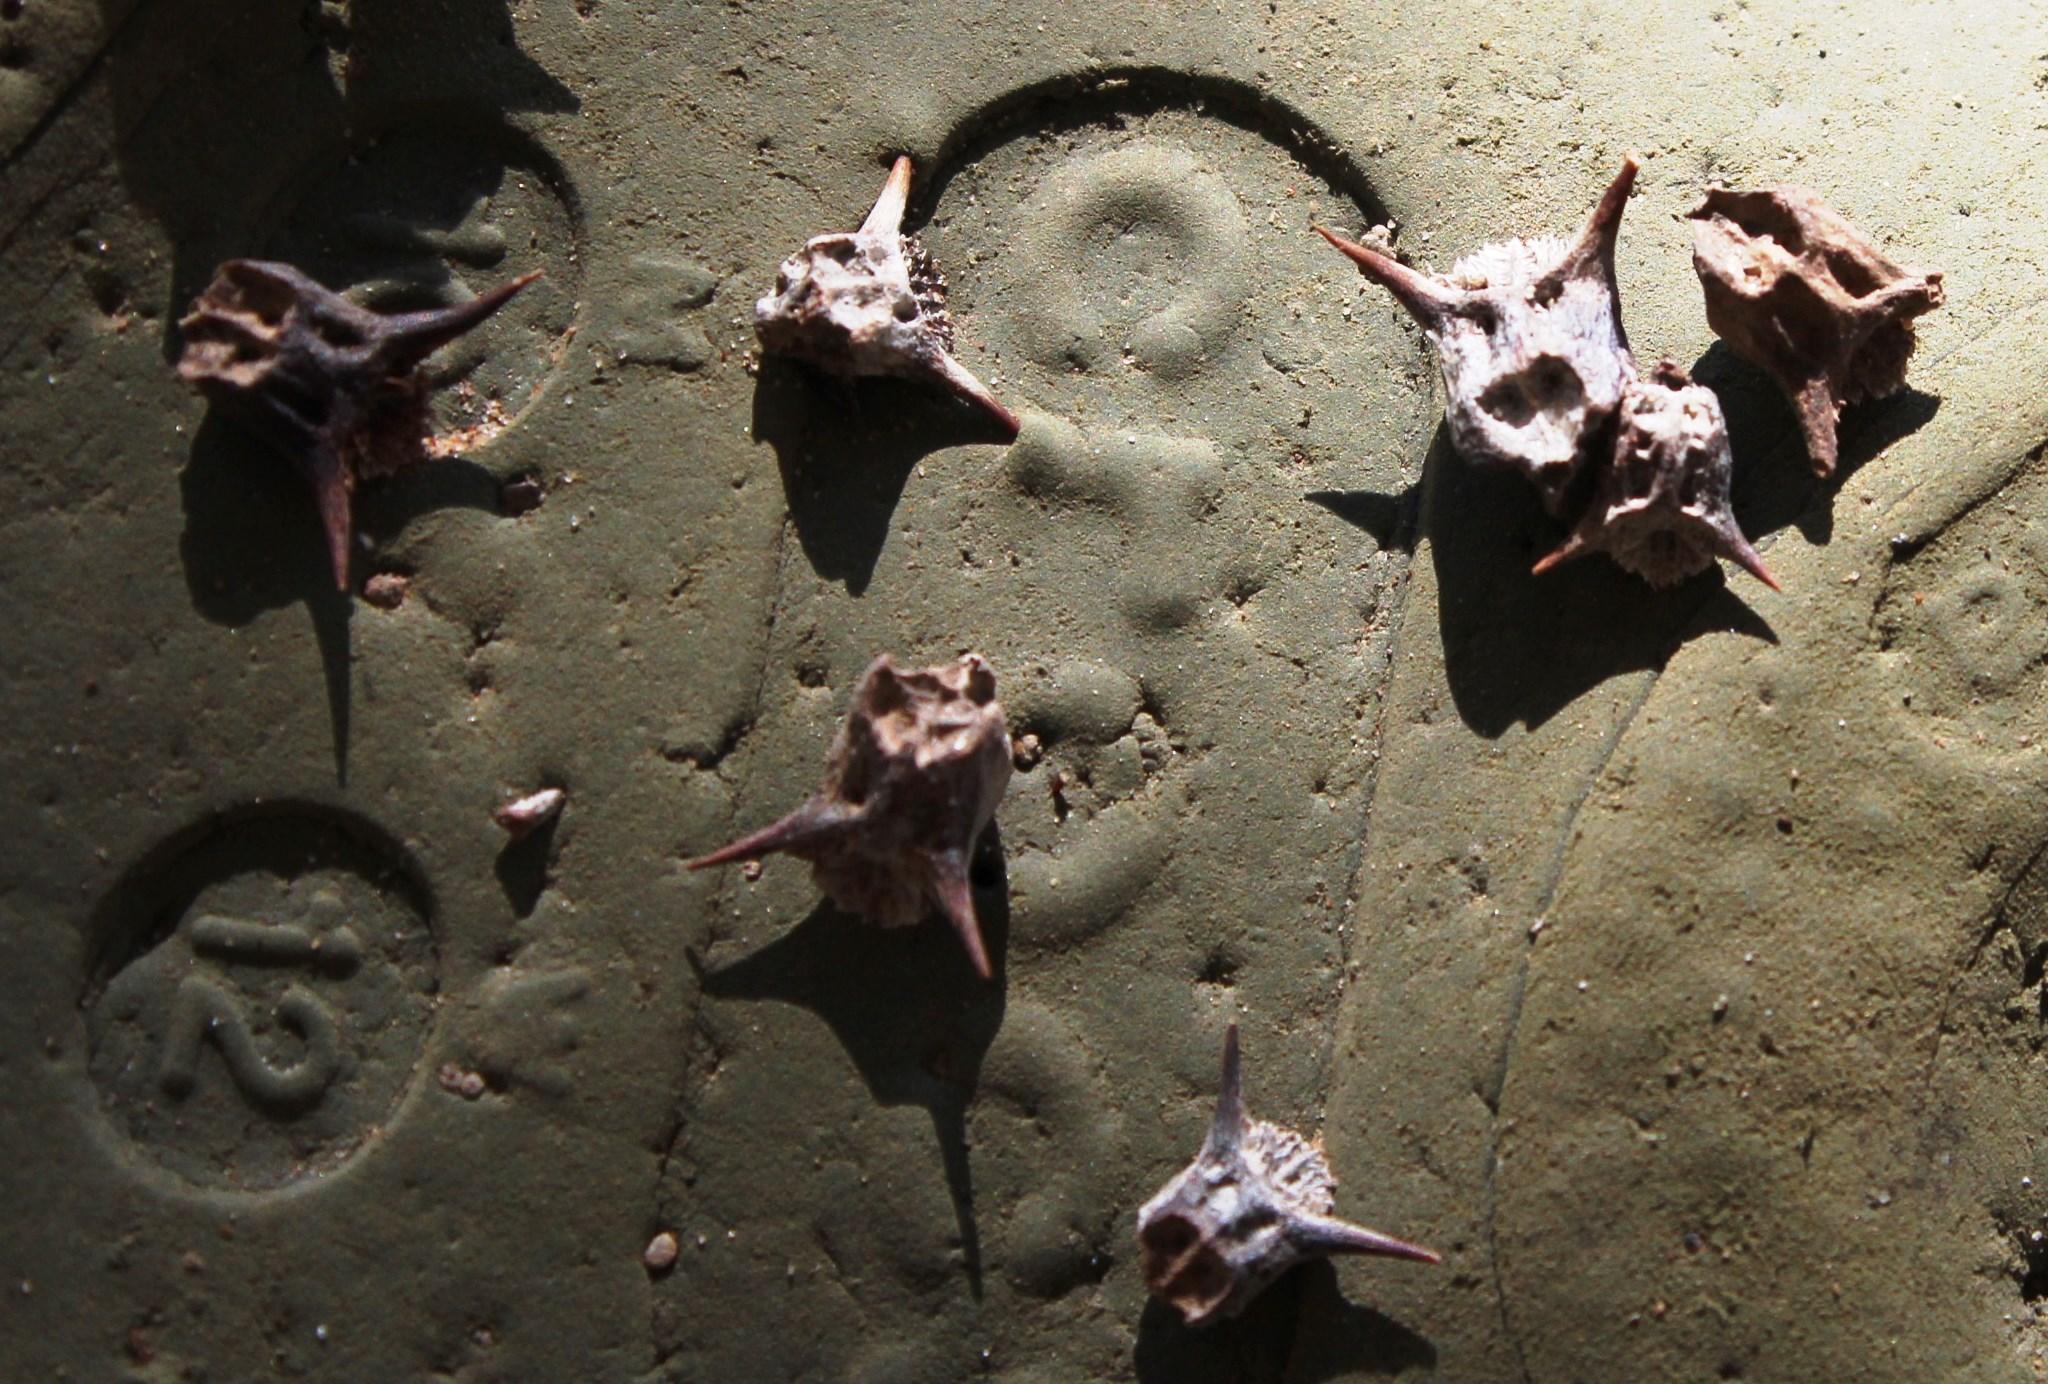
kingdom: Plantae
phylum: Tracheophyta
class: Magnoliopsida
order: Zygophyllales
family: Zygophyllaceae
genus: Tribulus
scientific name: Tribulus terrestris
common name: Puncturevine
